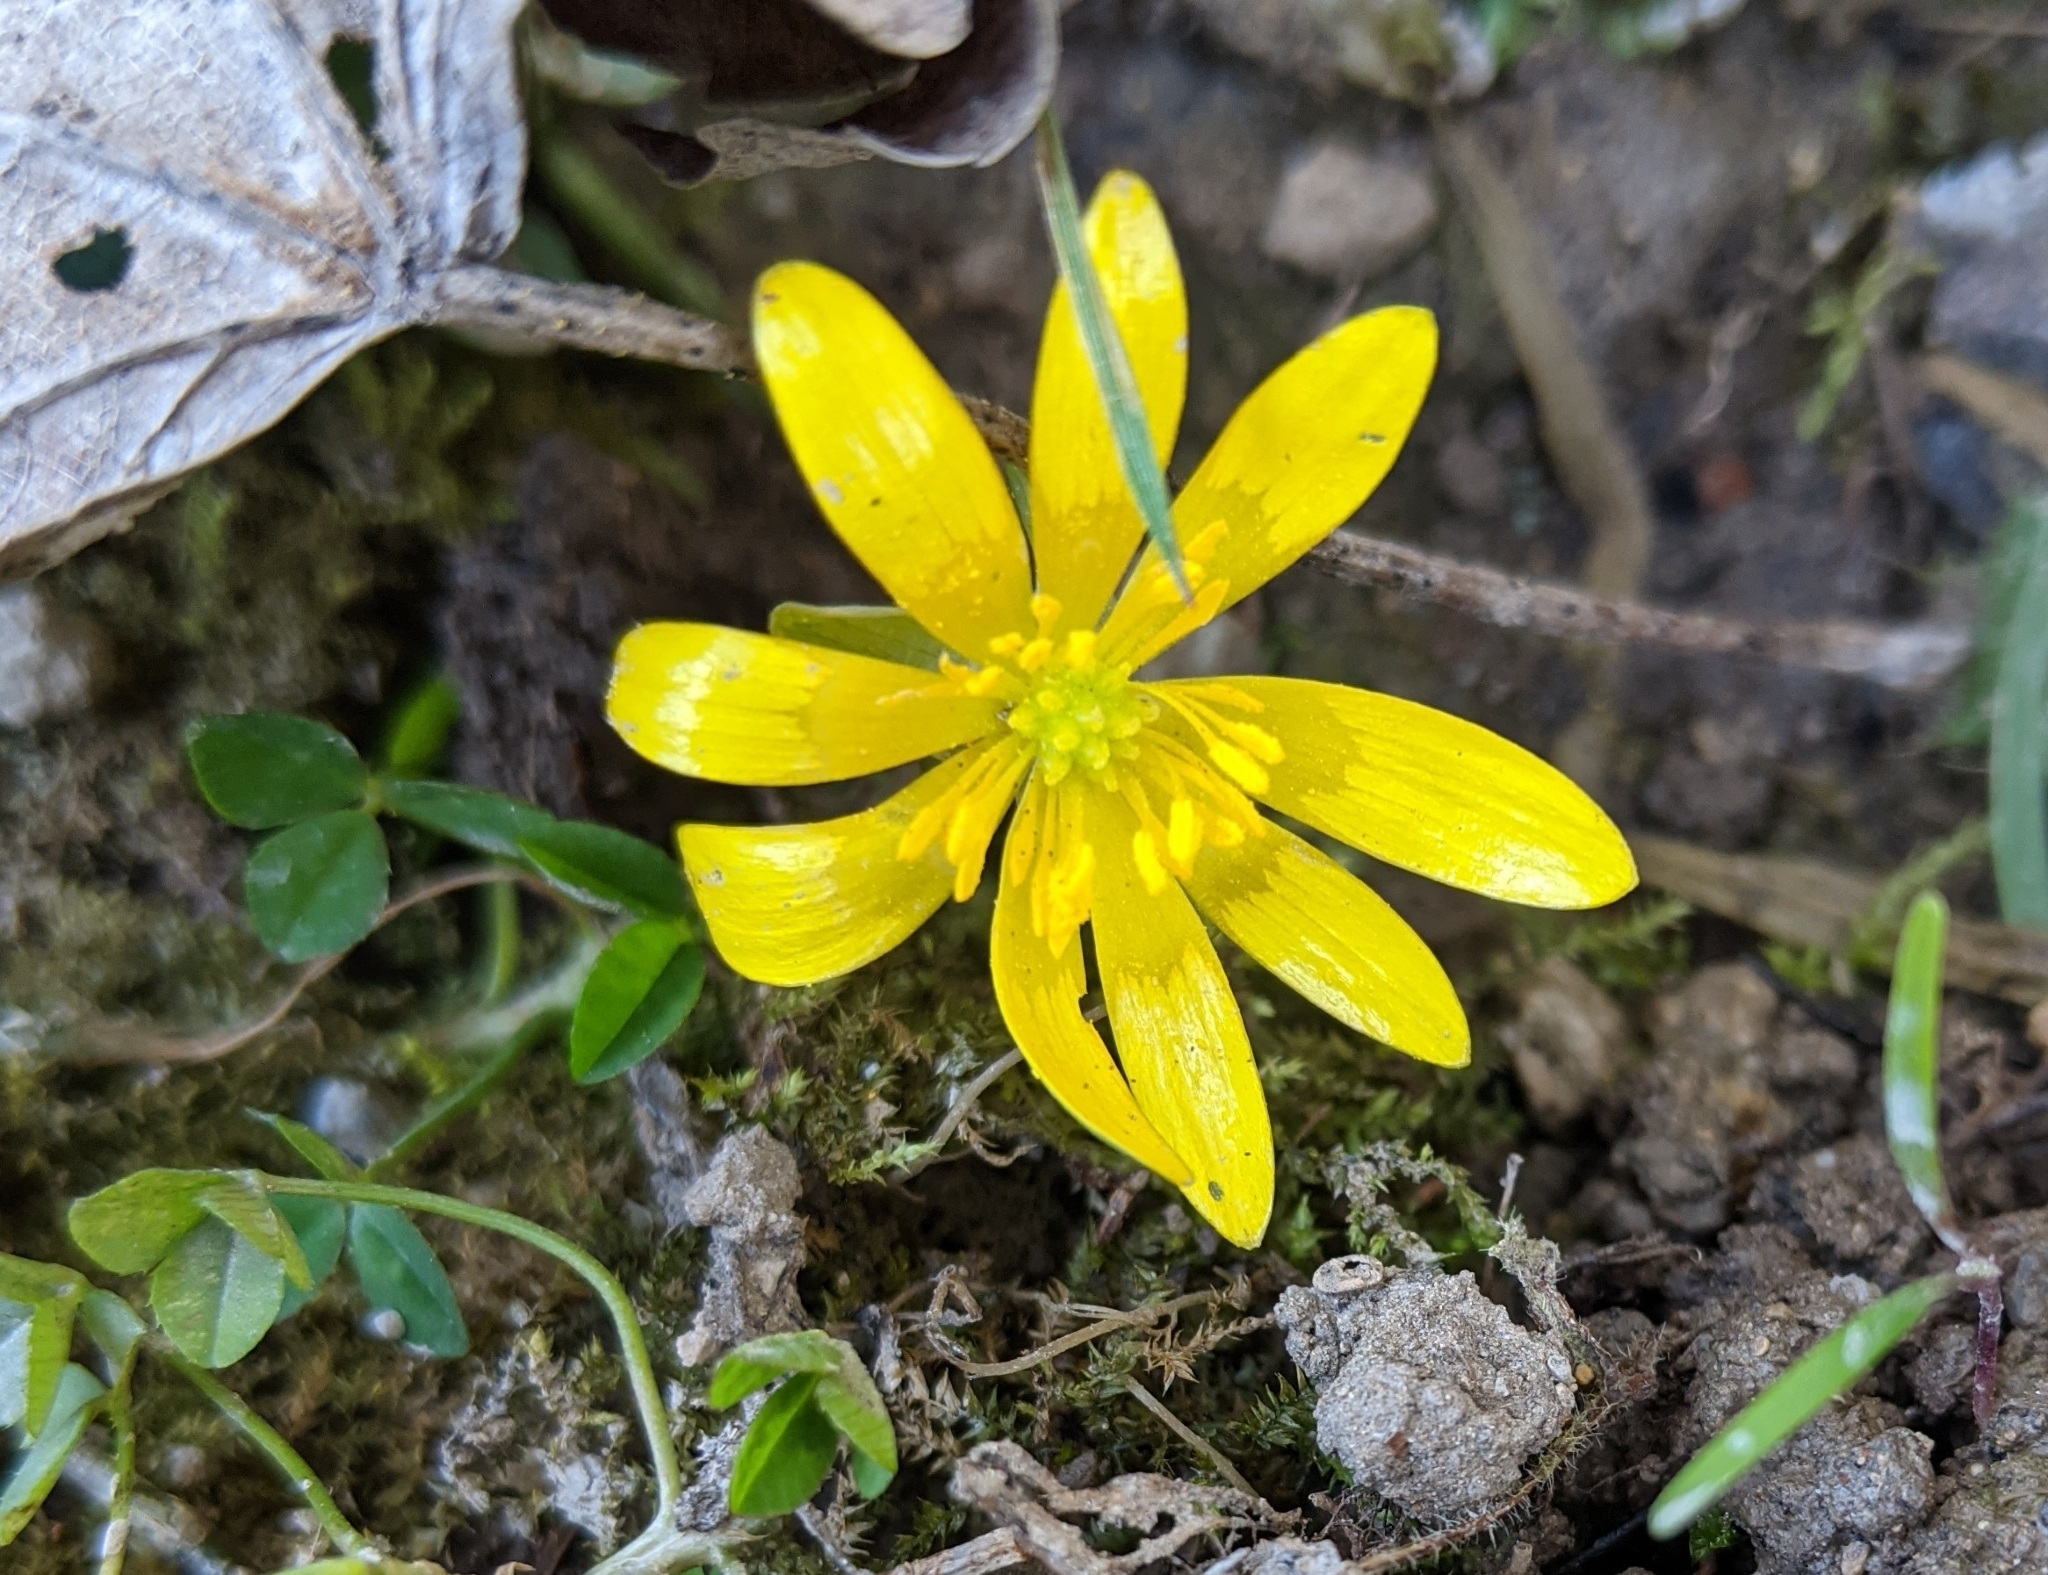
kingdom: Plantae
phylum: Tracheophyta
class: Magnoliopsida
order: Ranunculales
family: Ranunculaceae
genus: Ficaria
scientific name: Ficaria verna
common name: Lesser celandine
